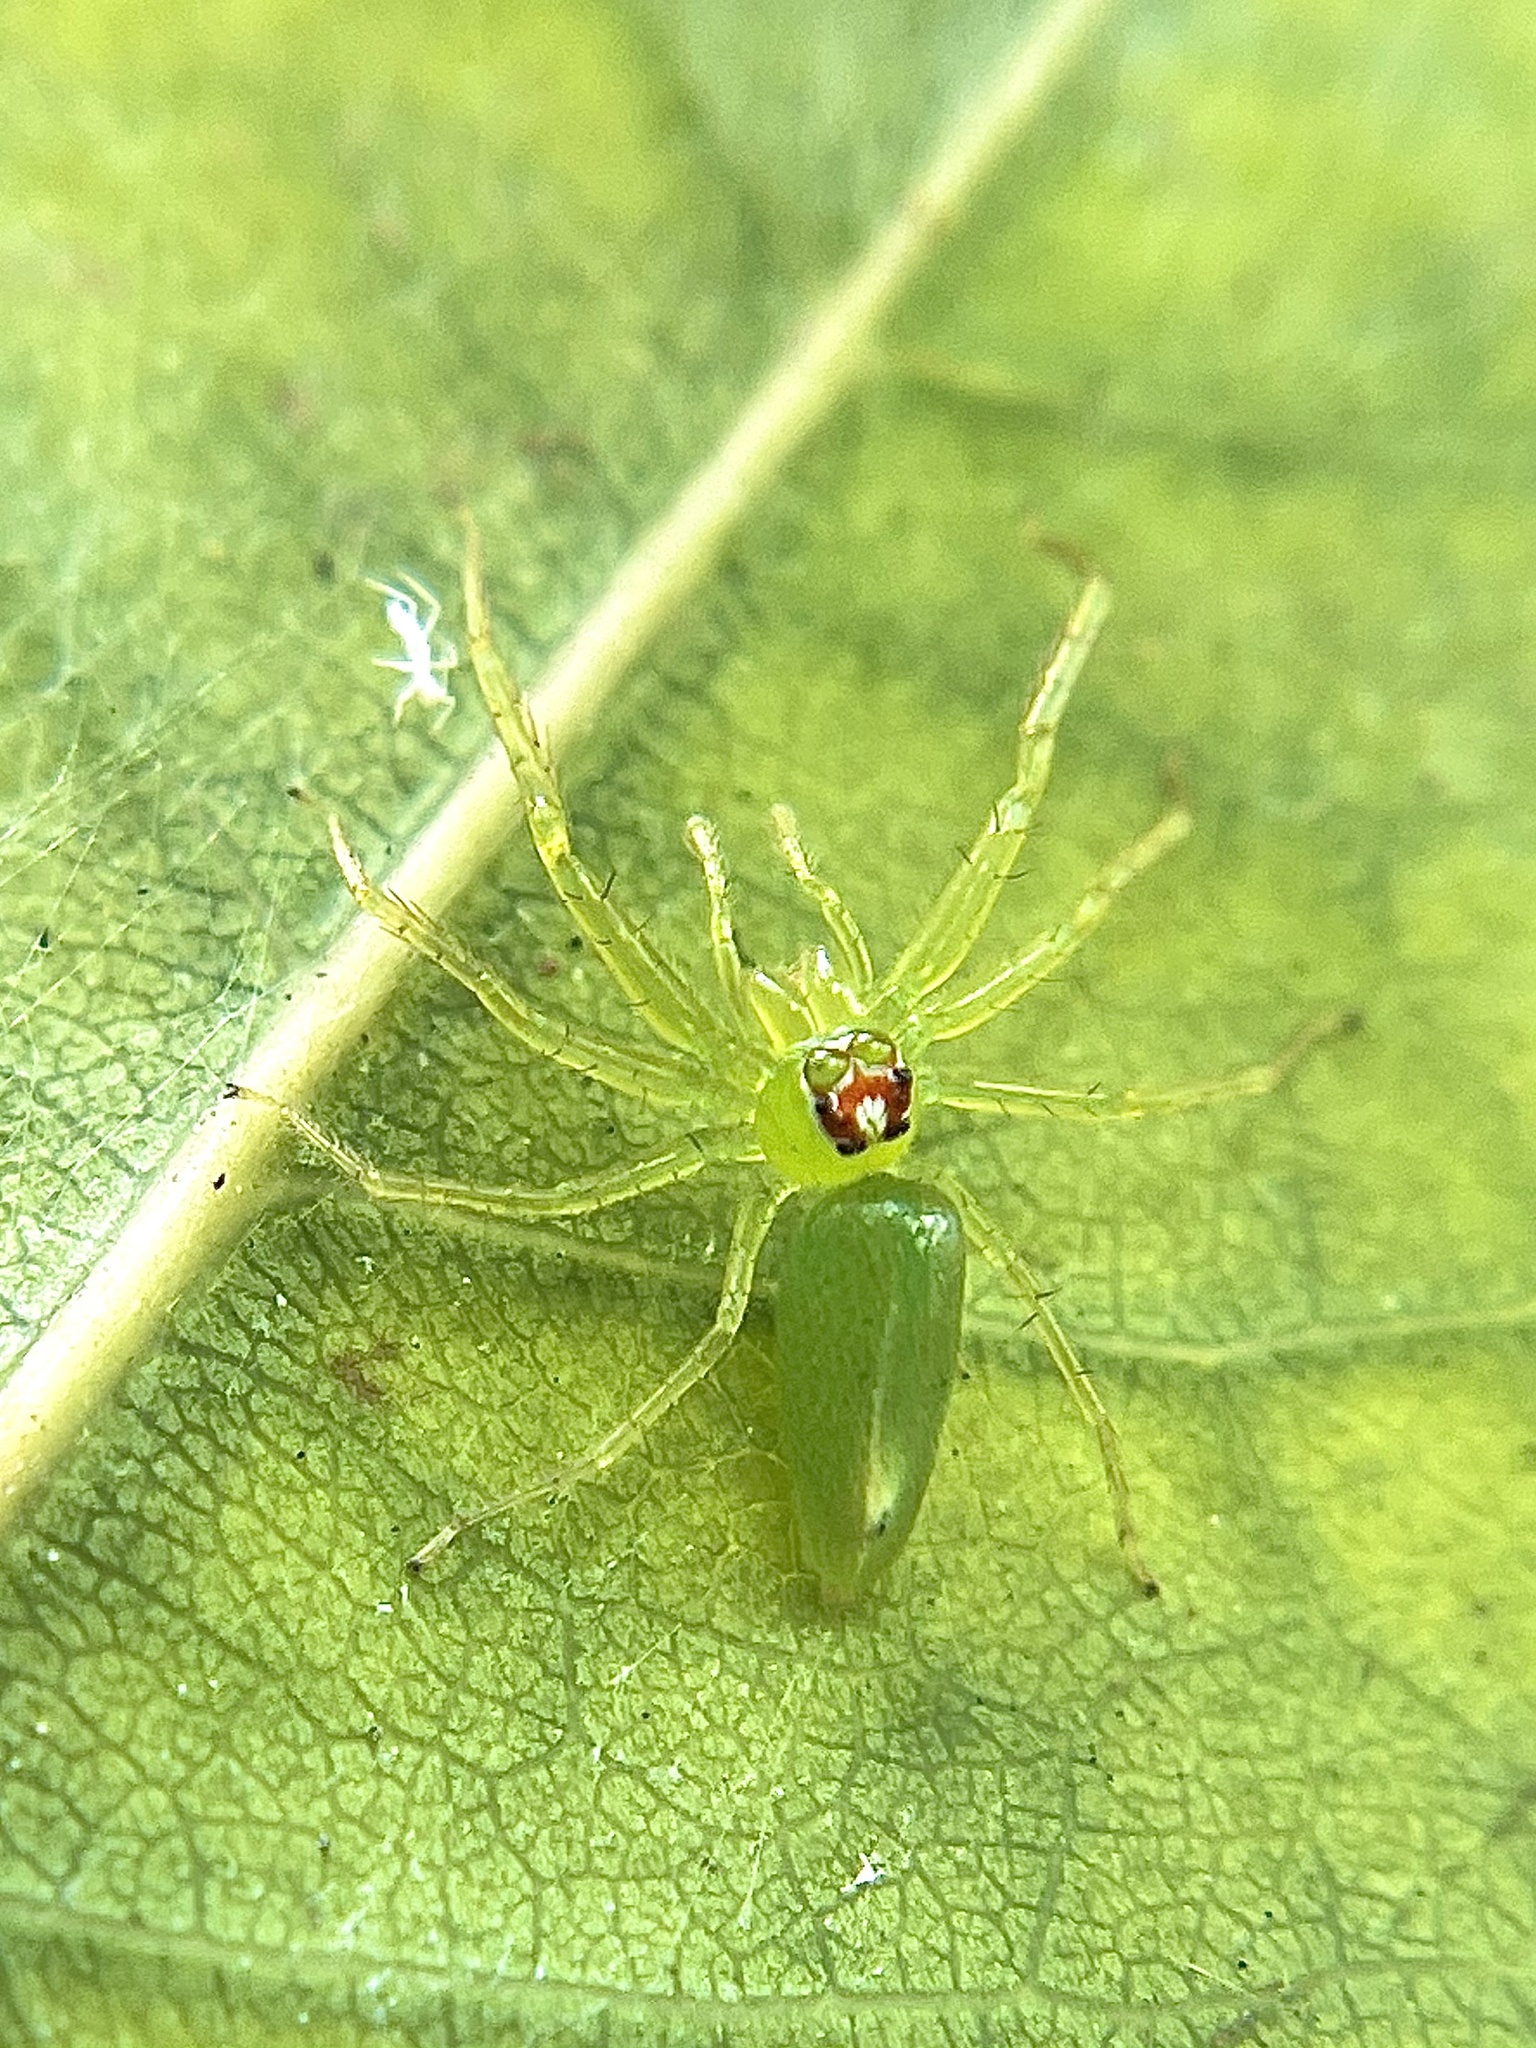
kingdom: Animalia
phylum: Arthropoda
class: Arachnida
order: Araneae
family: Salticidae
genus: Lyssomanes
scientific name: Lyssomanes viridis
